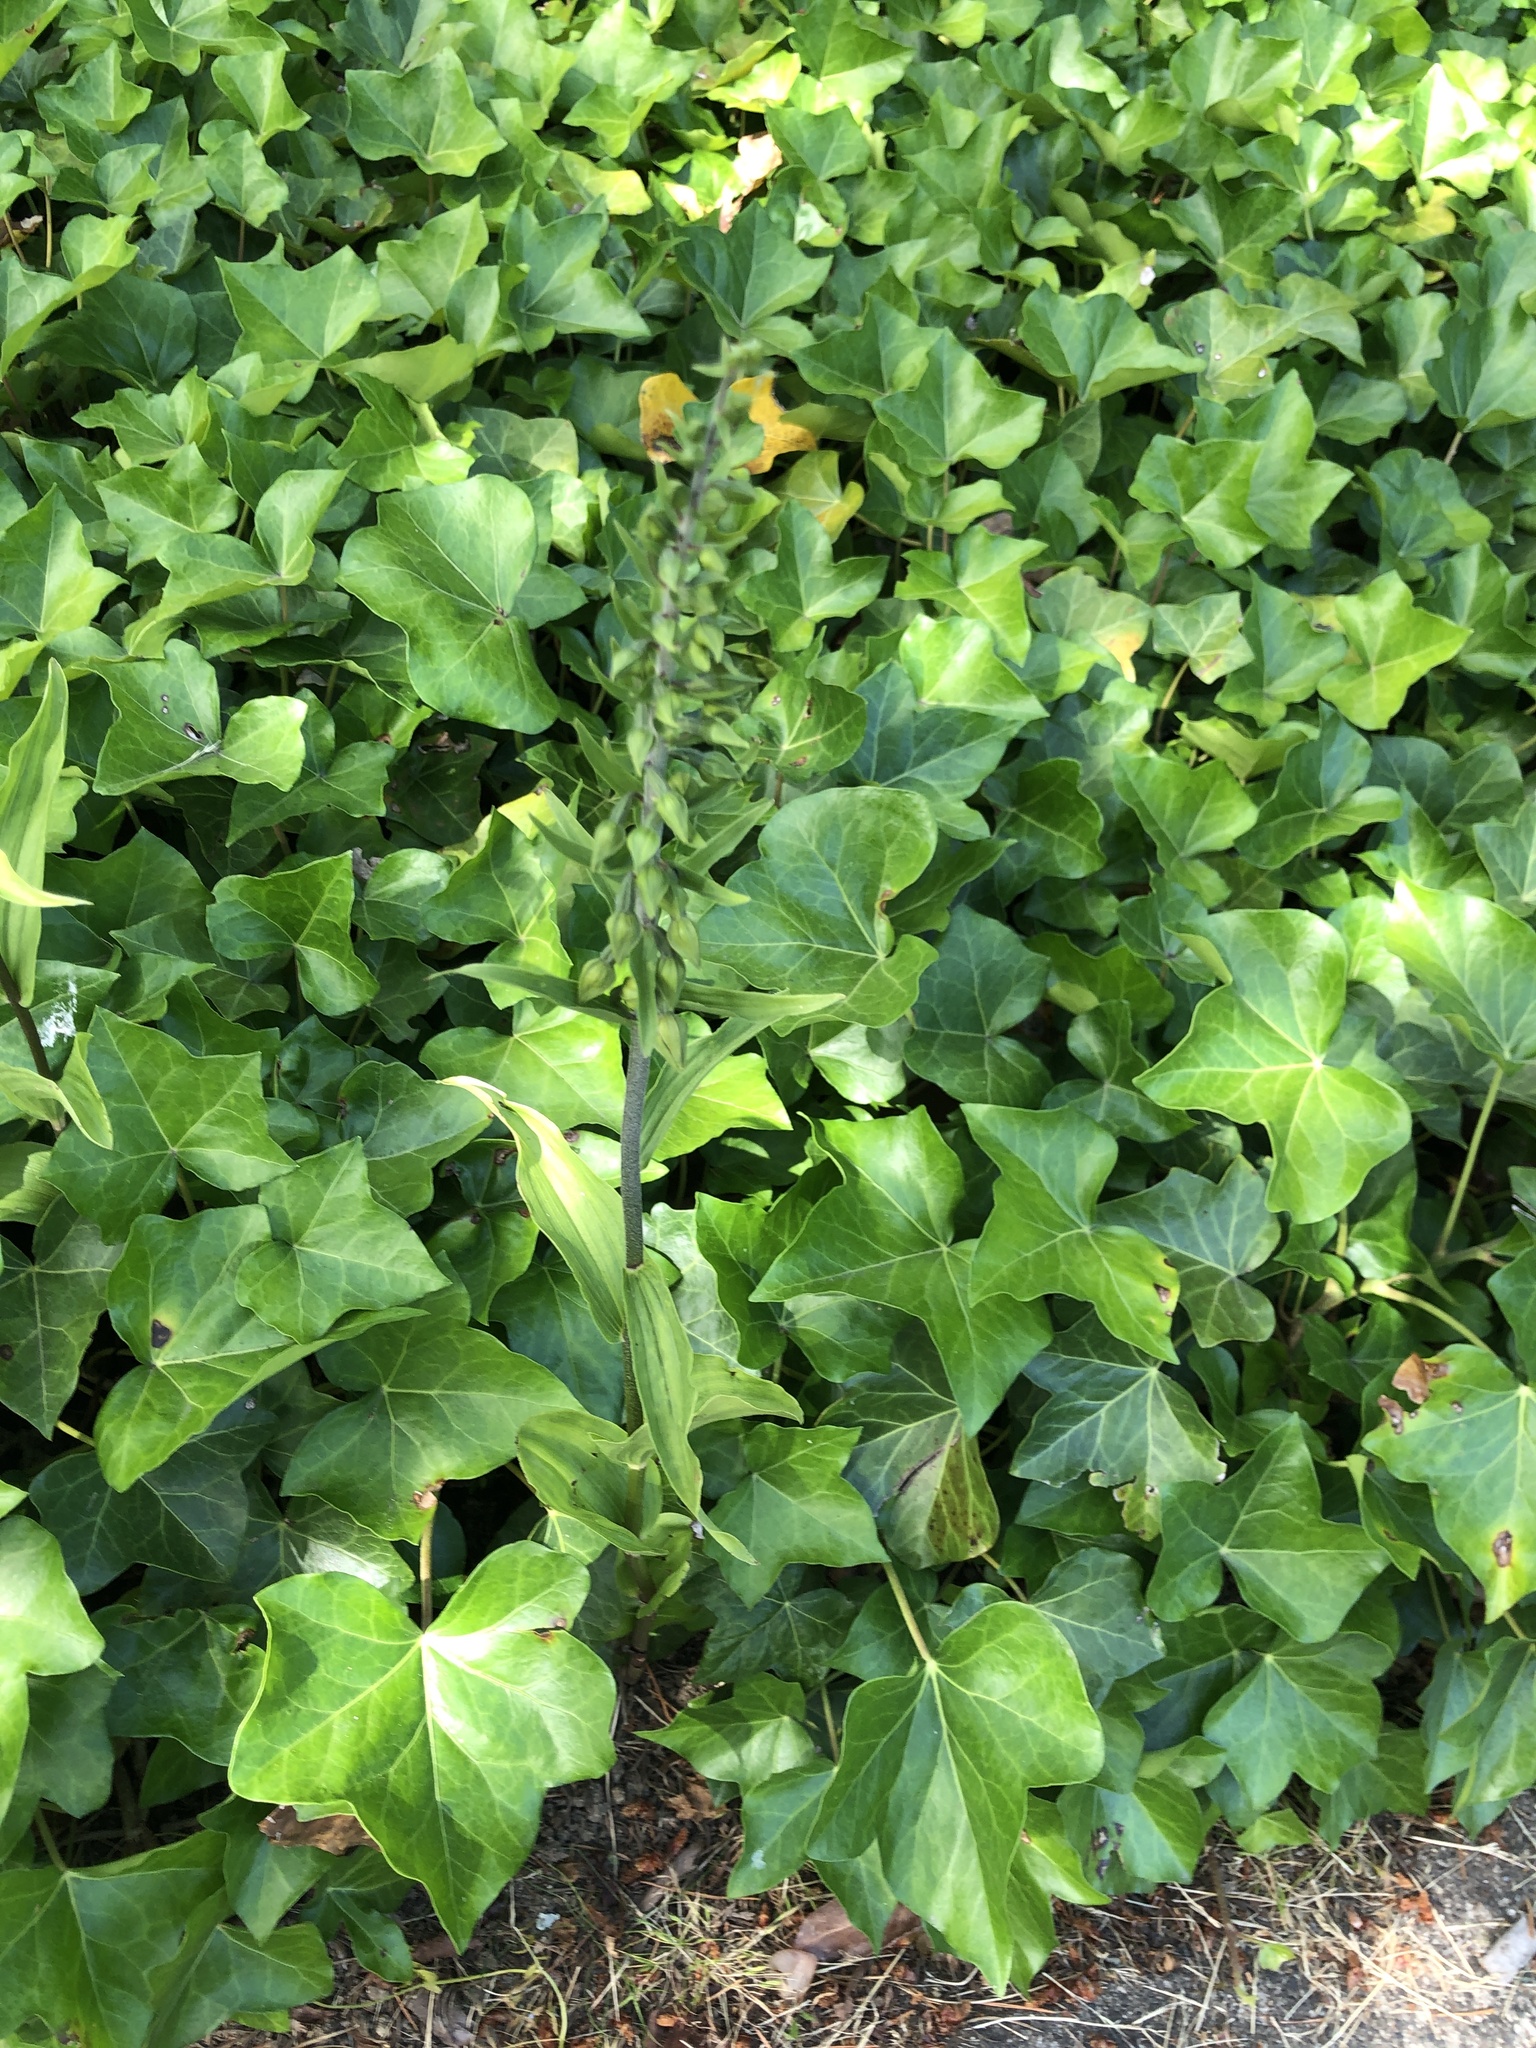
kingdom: Plantae
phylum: Tracheophyta
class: Liliopsida
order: Asparagales
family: Orchidaceae
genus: Epipactis
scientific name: Epipactis helleborine
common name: Broad-leaved helleborine
